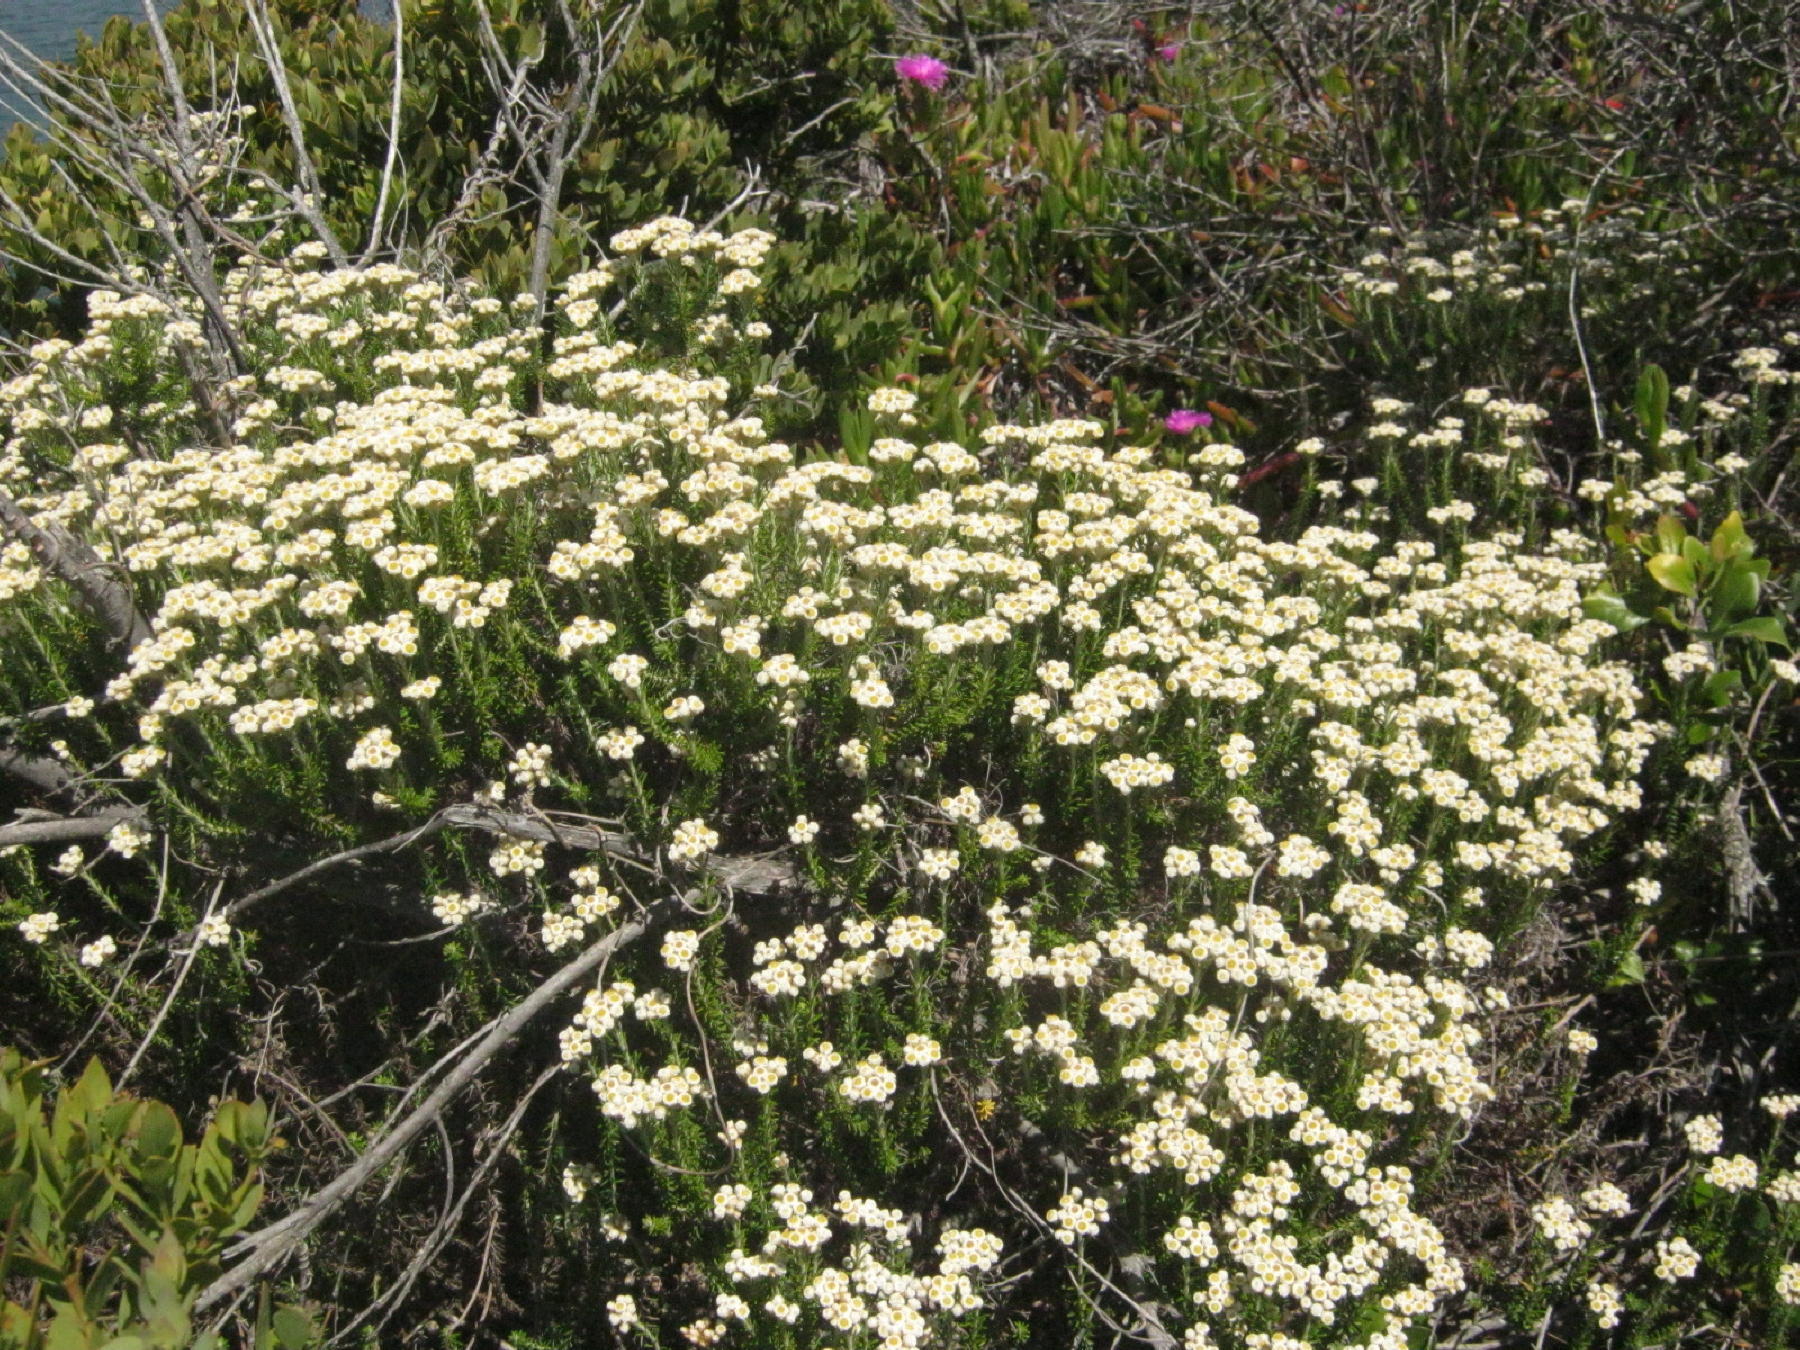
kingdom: Plantae
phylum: Tracheophyta
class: Magnoliopsida
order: Asterales
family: Asteraceae
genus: Helichrysum
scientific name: Helichrysum teretifolium
